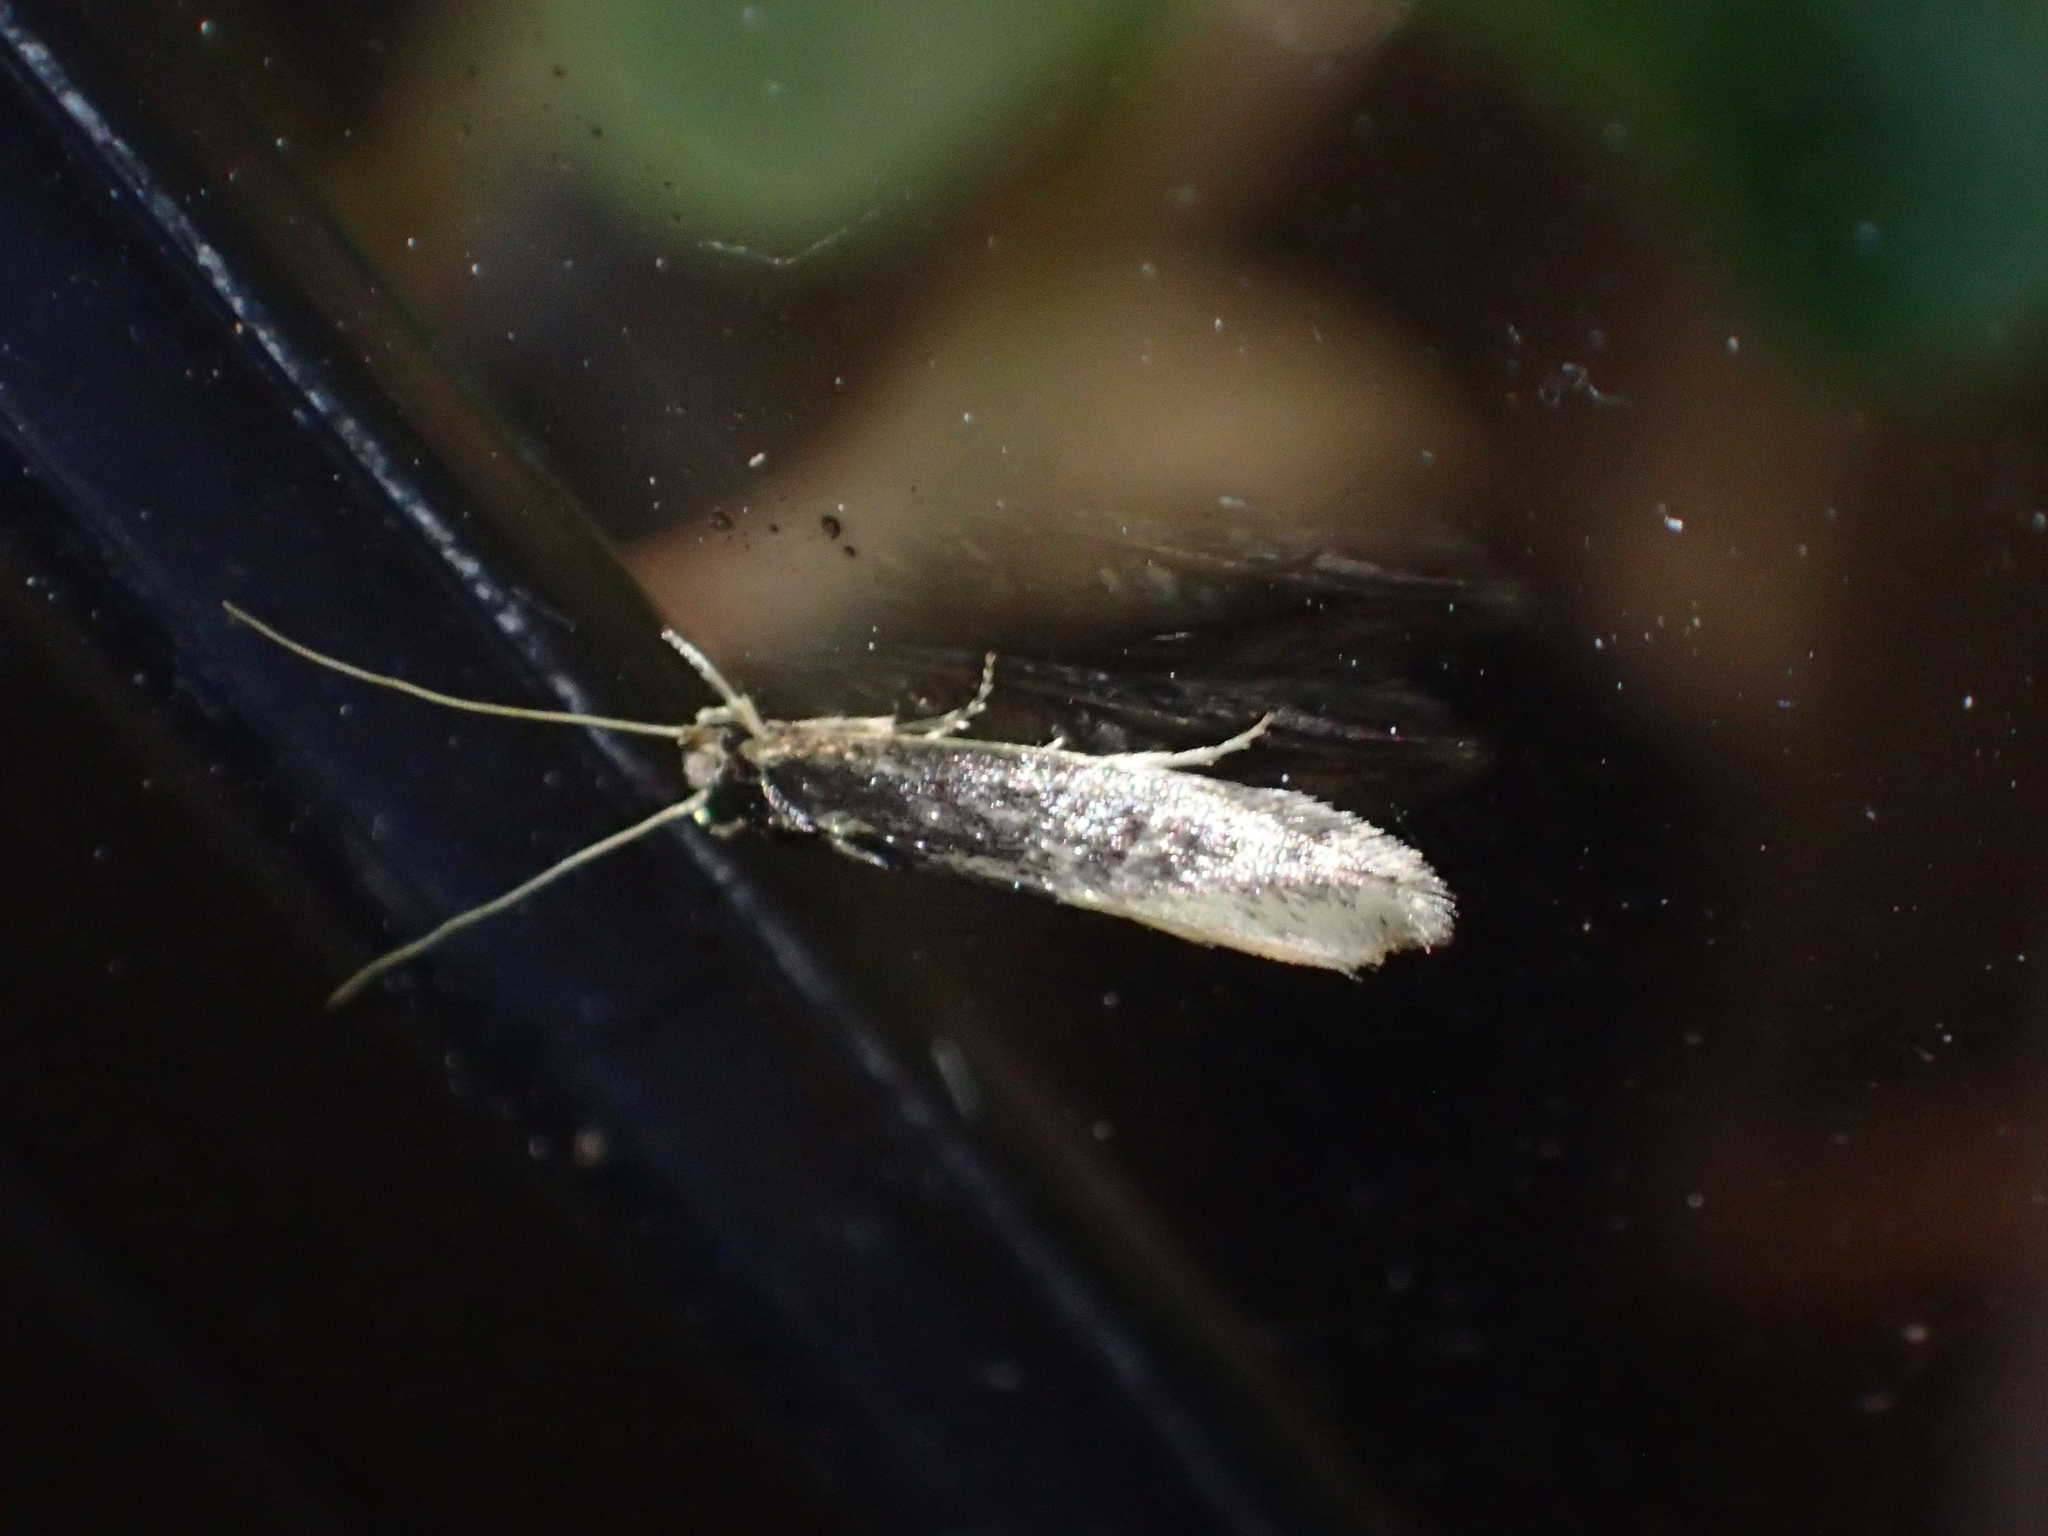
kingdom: Animalia
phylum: Arthropoda
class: Insecta
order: Lepidoptera
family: Tineidae
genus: Opogona
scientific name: Opogona omoscopa
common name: Moth
